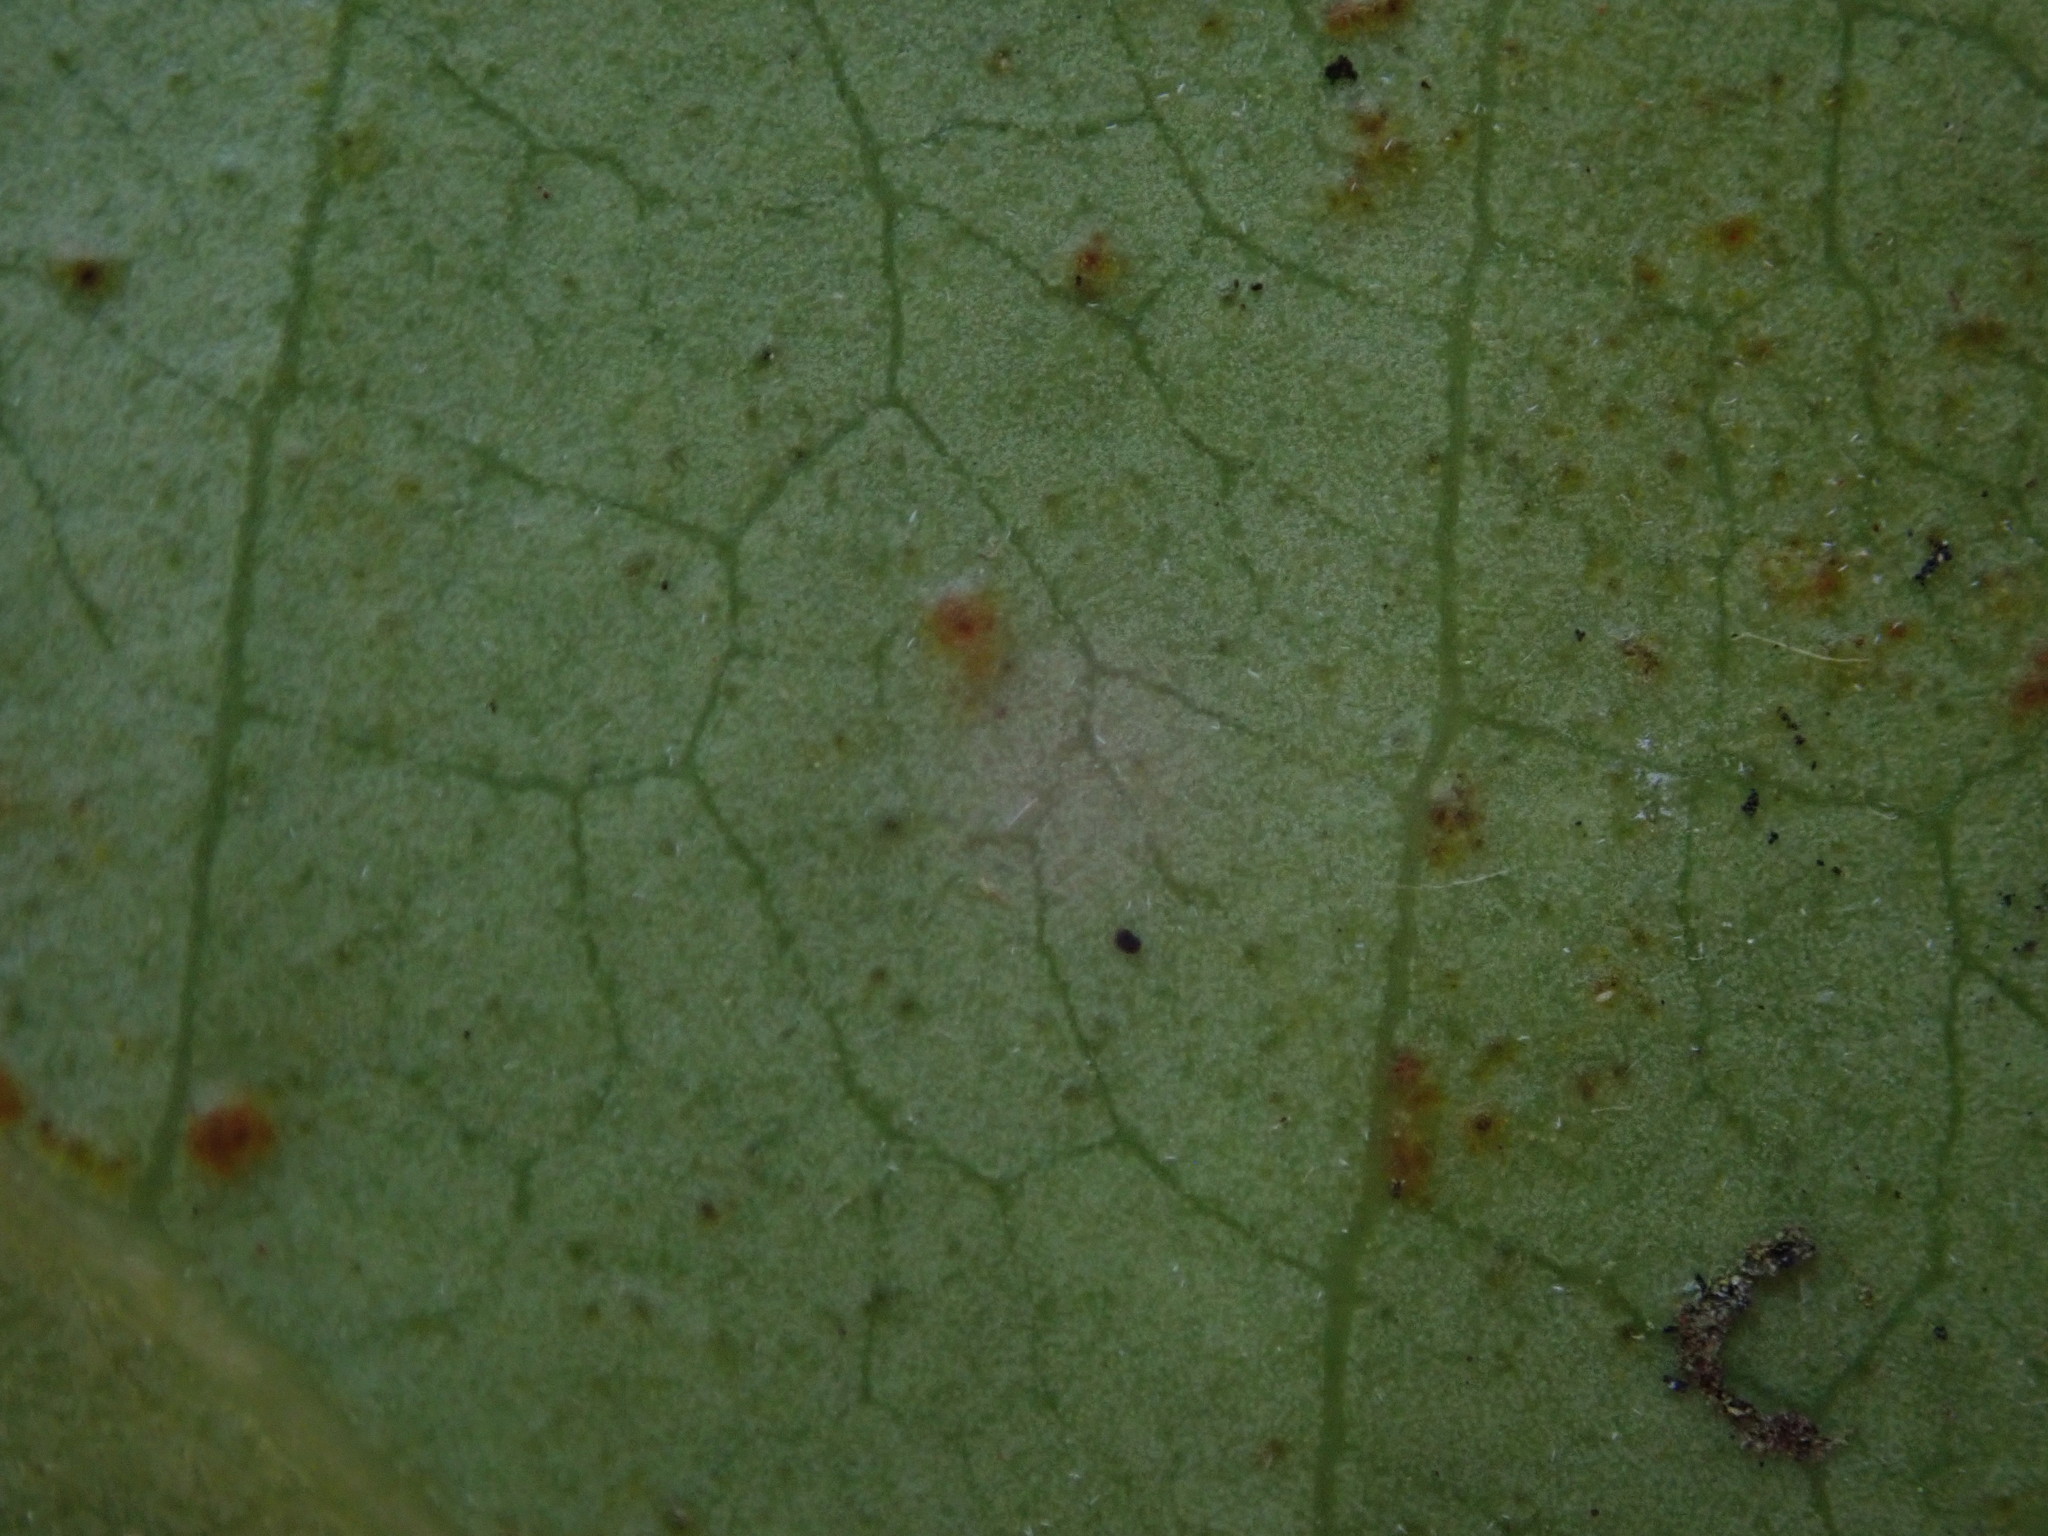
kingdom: Plantae
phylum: Tracheophyta
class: Magnoliopsida
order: Malpighiales
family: Calophyllaceae
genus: Calophyllum
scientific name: Calophyllum inophyllum
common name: Alexandrian laurel
